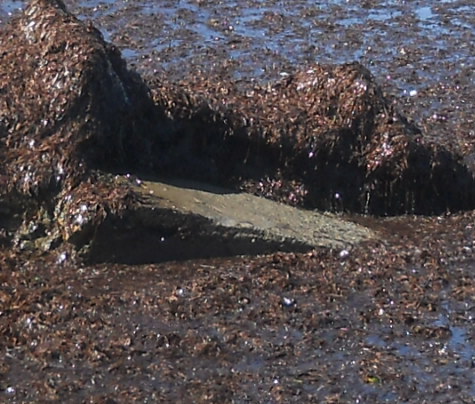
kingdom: Plantae
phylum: Tracheophyta
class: Liliopsida
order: Alismatales
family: Posidoniaceae
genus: Posidonia
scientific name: Posidonia oceanica
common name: Mediterranean tapeweed
